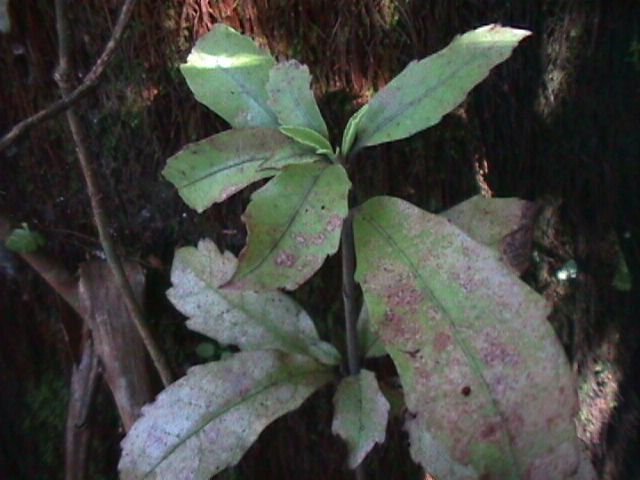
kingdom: Plantae
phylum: Tracheophyta
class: Magnoliopsida
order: Asterales
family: Alseuosmiaceae
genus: Alseuosmia
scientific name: Alseuosmia macrophylla
